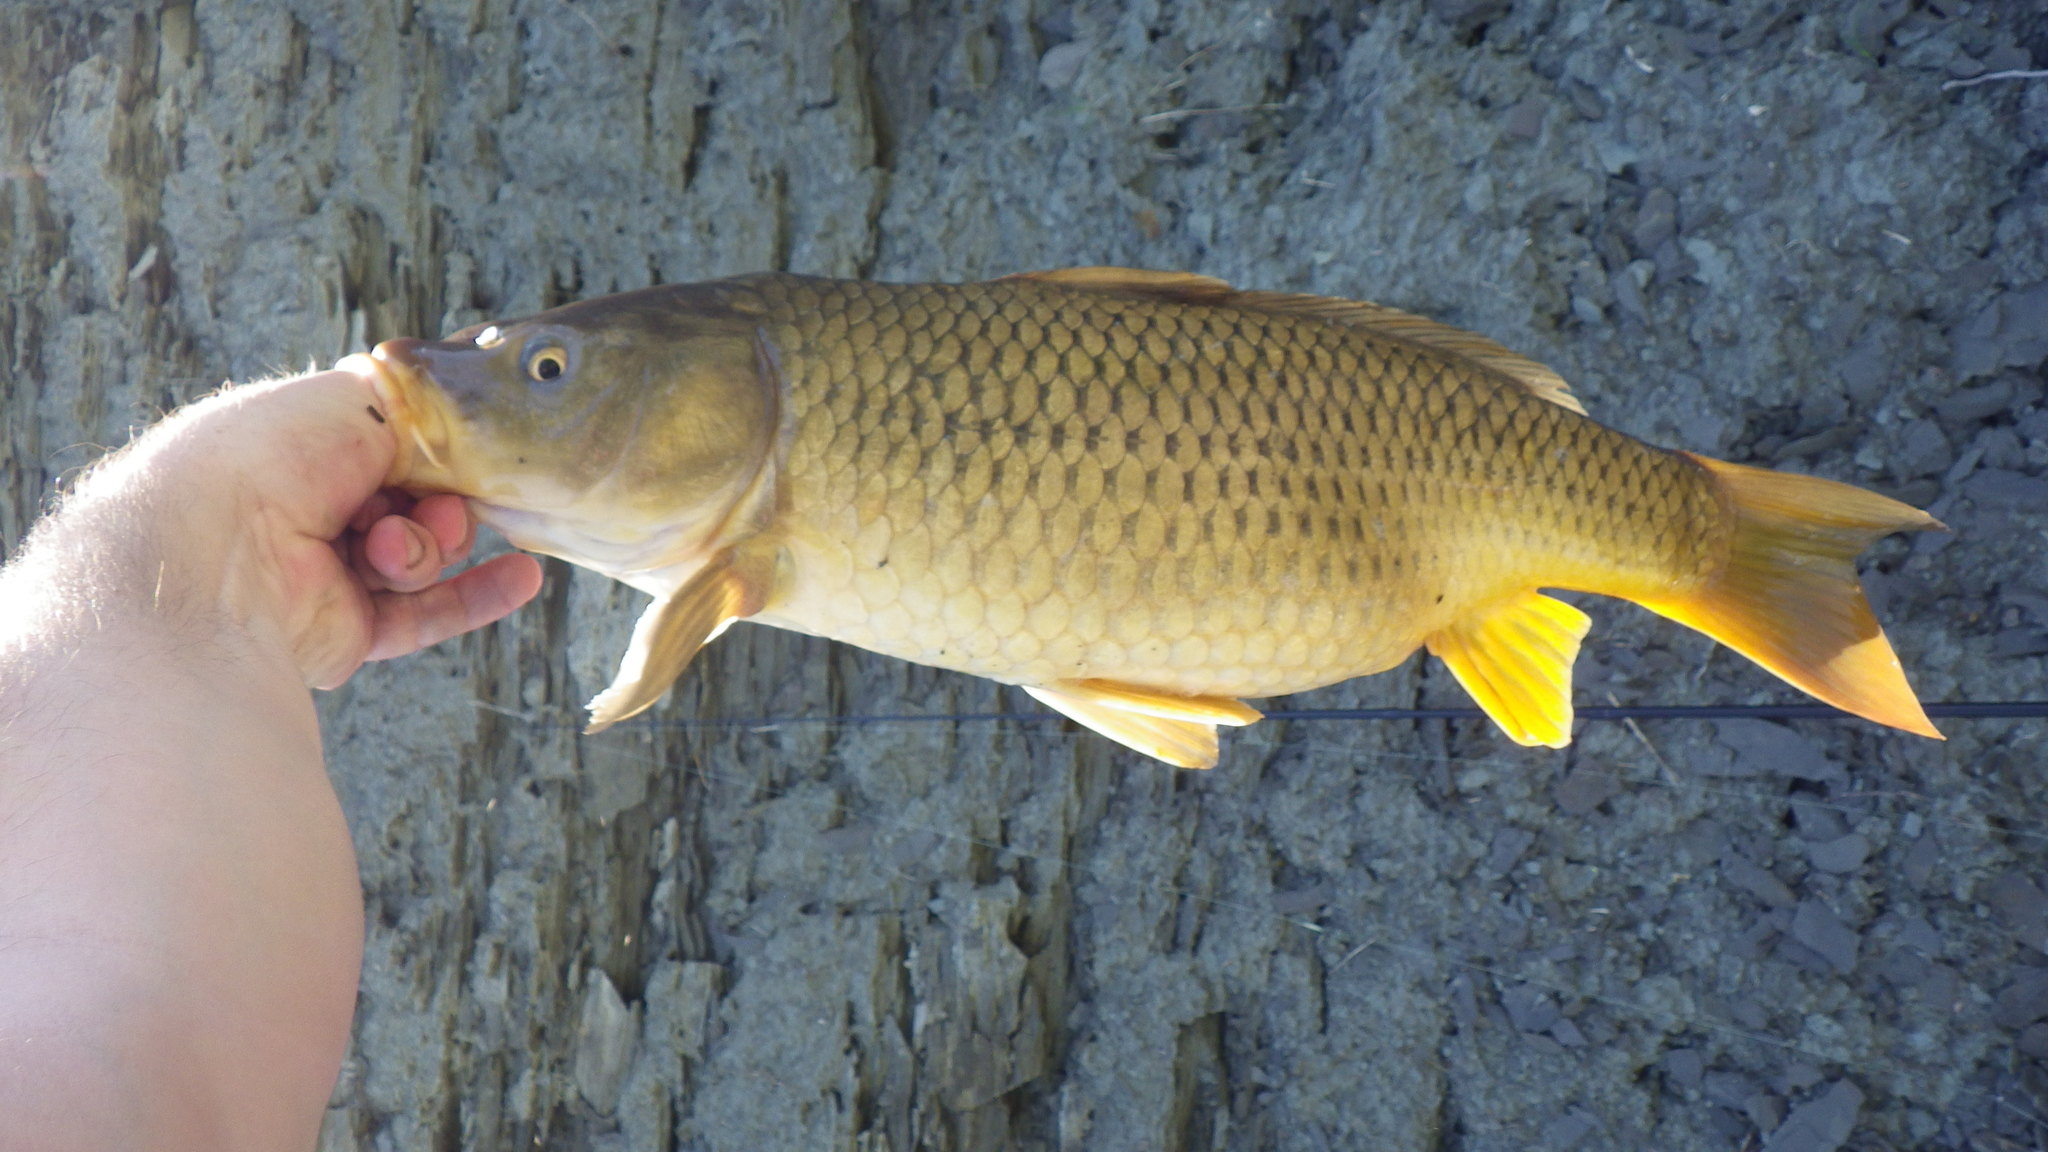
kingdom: Animalia
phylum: Chordata
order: Cypriniformes
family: Cyprinidae
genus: Cyprinus
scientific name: Cyprinus carpio
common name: Common carp
